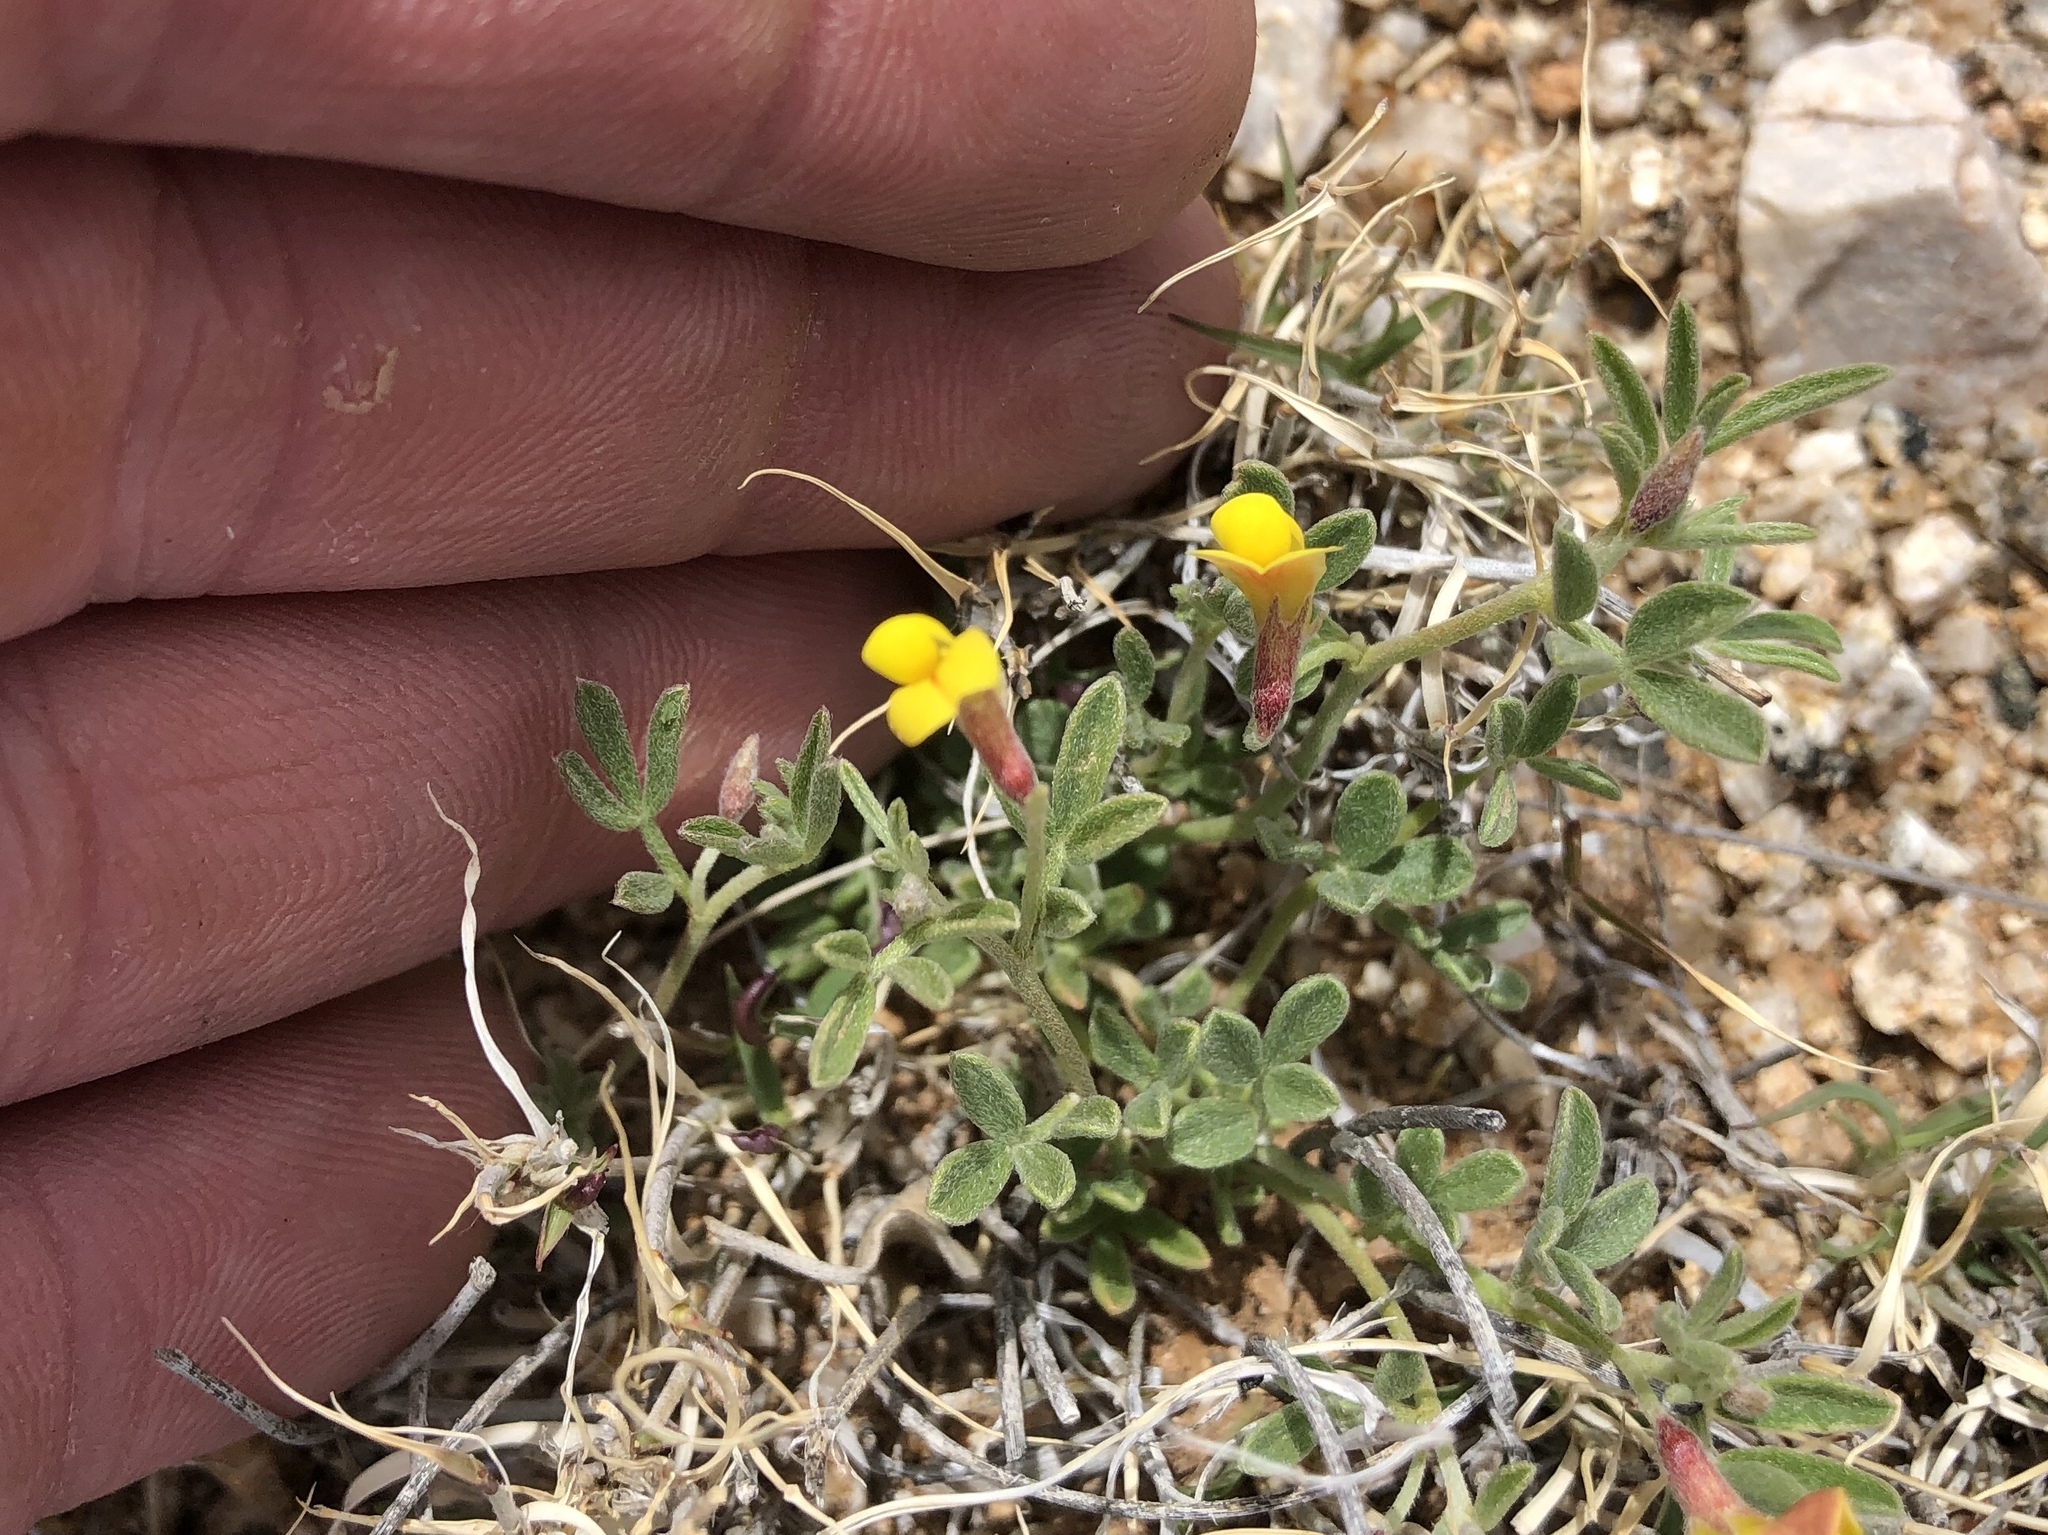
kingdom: Plantae
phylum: Tracheophyta
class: Magnoliopsida
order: Fabales
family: Fabaceae
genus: Acmispon
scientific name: Acmispon oroboides
